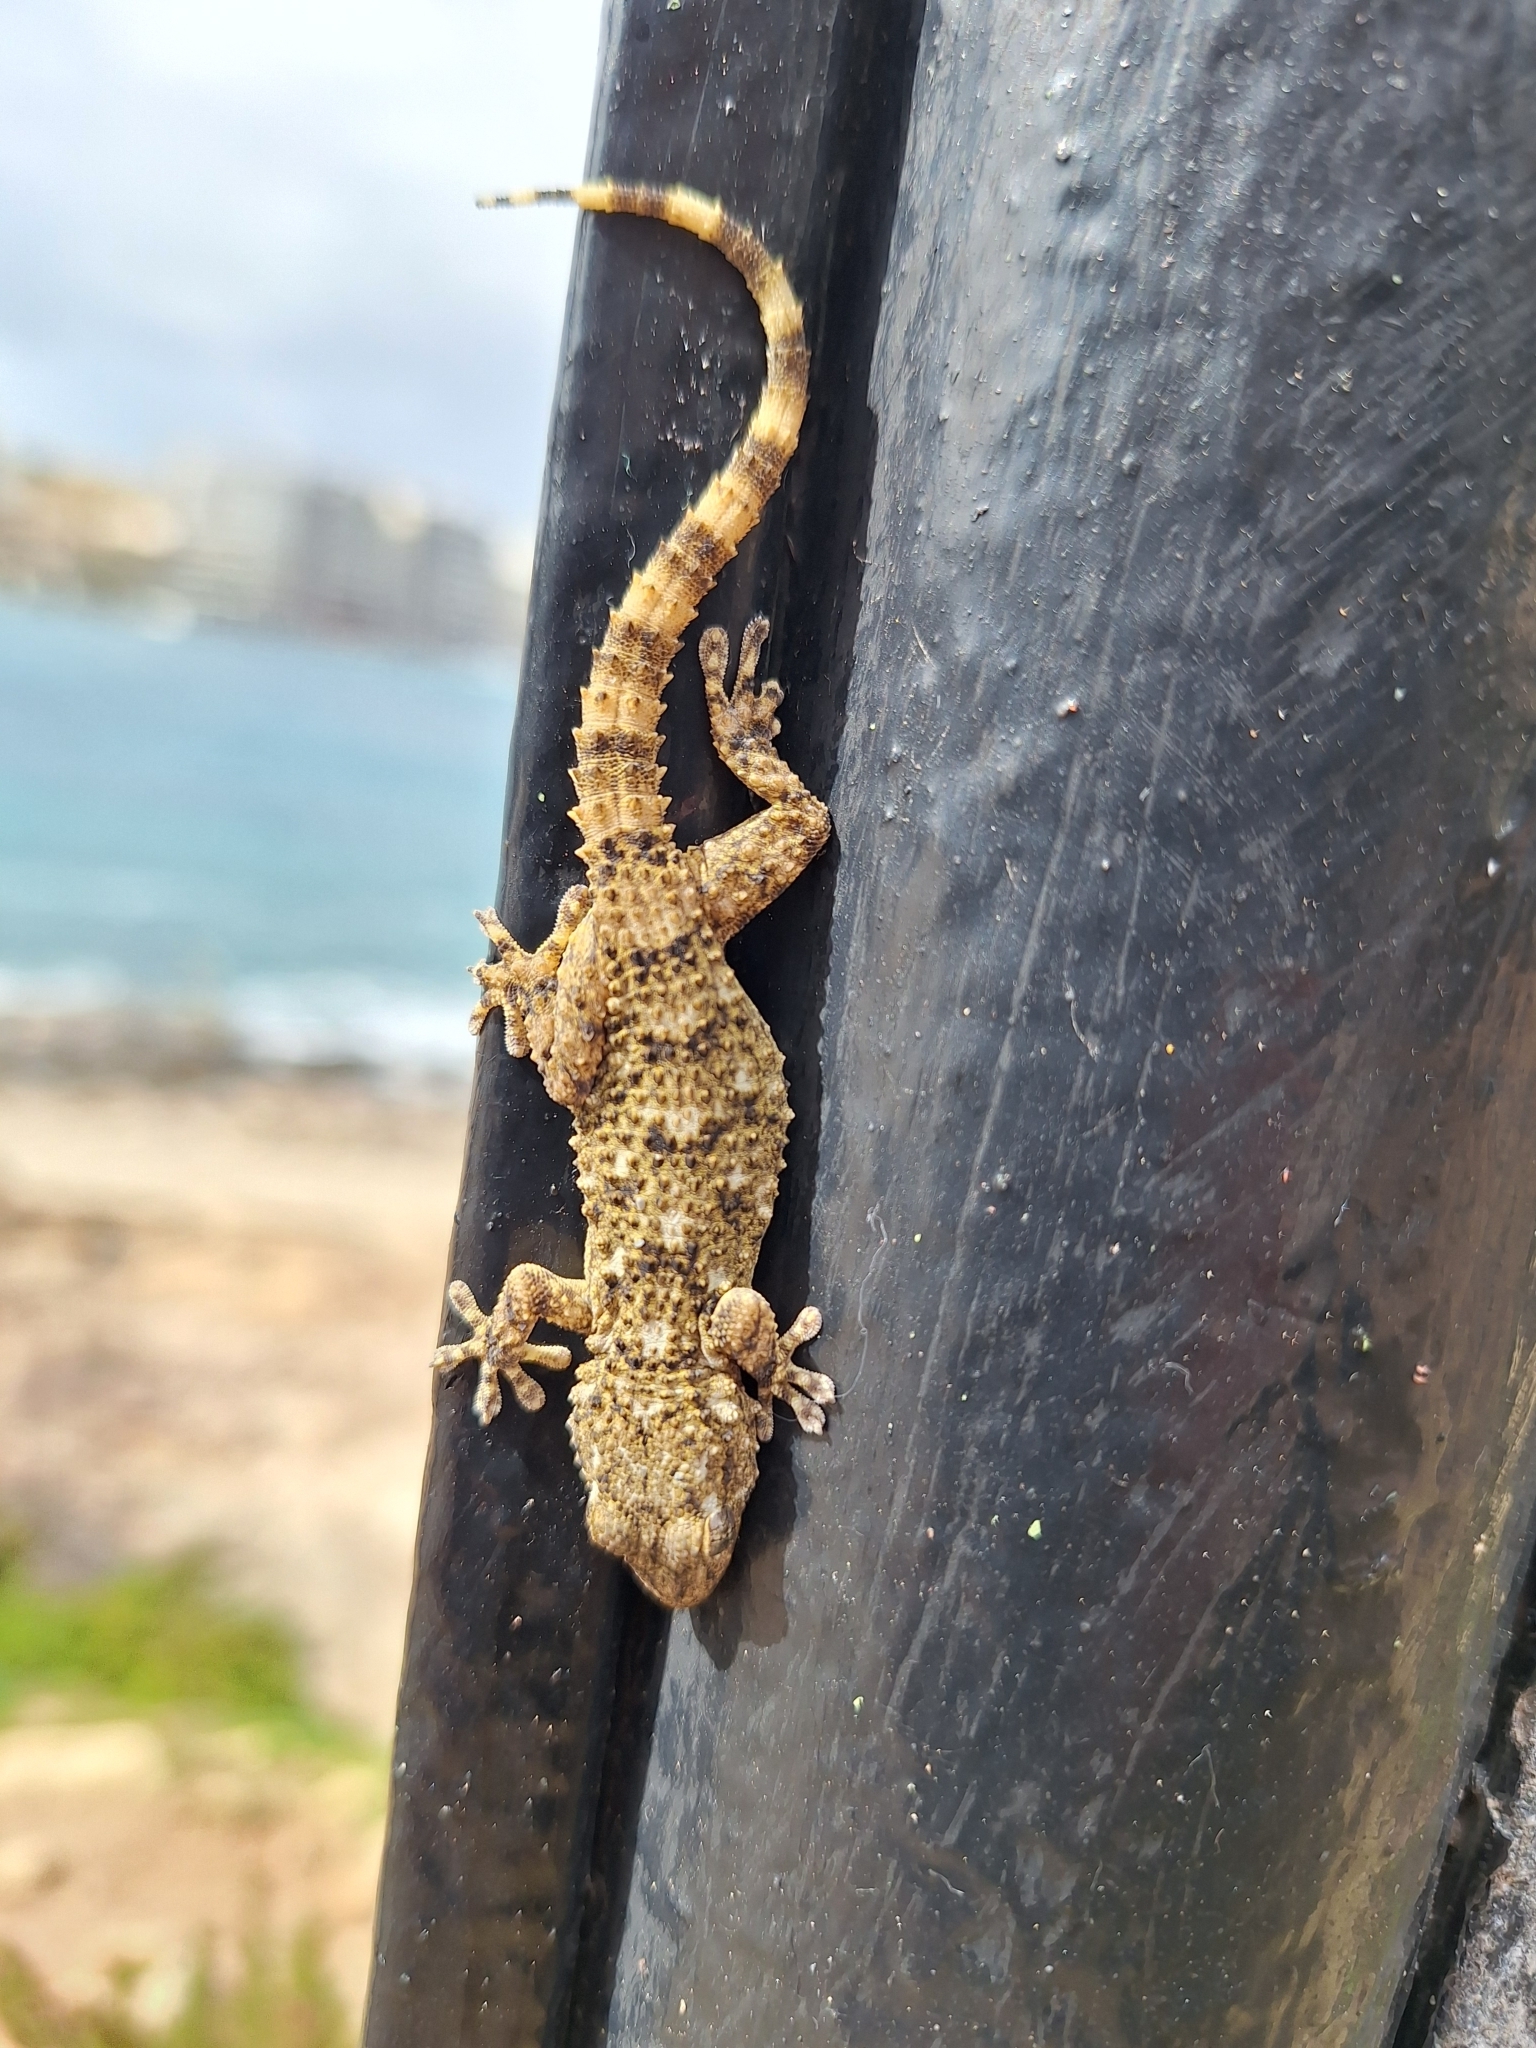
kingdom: Animalia
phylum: Chordata
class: Squamata
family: Phyllodactylidae
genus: Tarentola
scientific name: Tarentola mauritanica
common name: Moorish gecko
